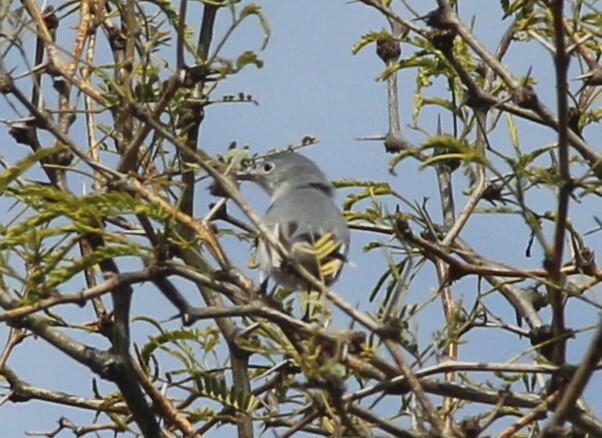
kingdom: Animalia
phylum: Chordata
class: Aves
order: Passeriformes
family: Polioptilidae
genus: Polioptila
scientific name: Polioptila caerulea
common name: Blue-gray gnatcatcher
